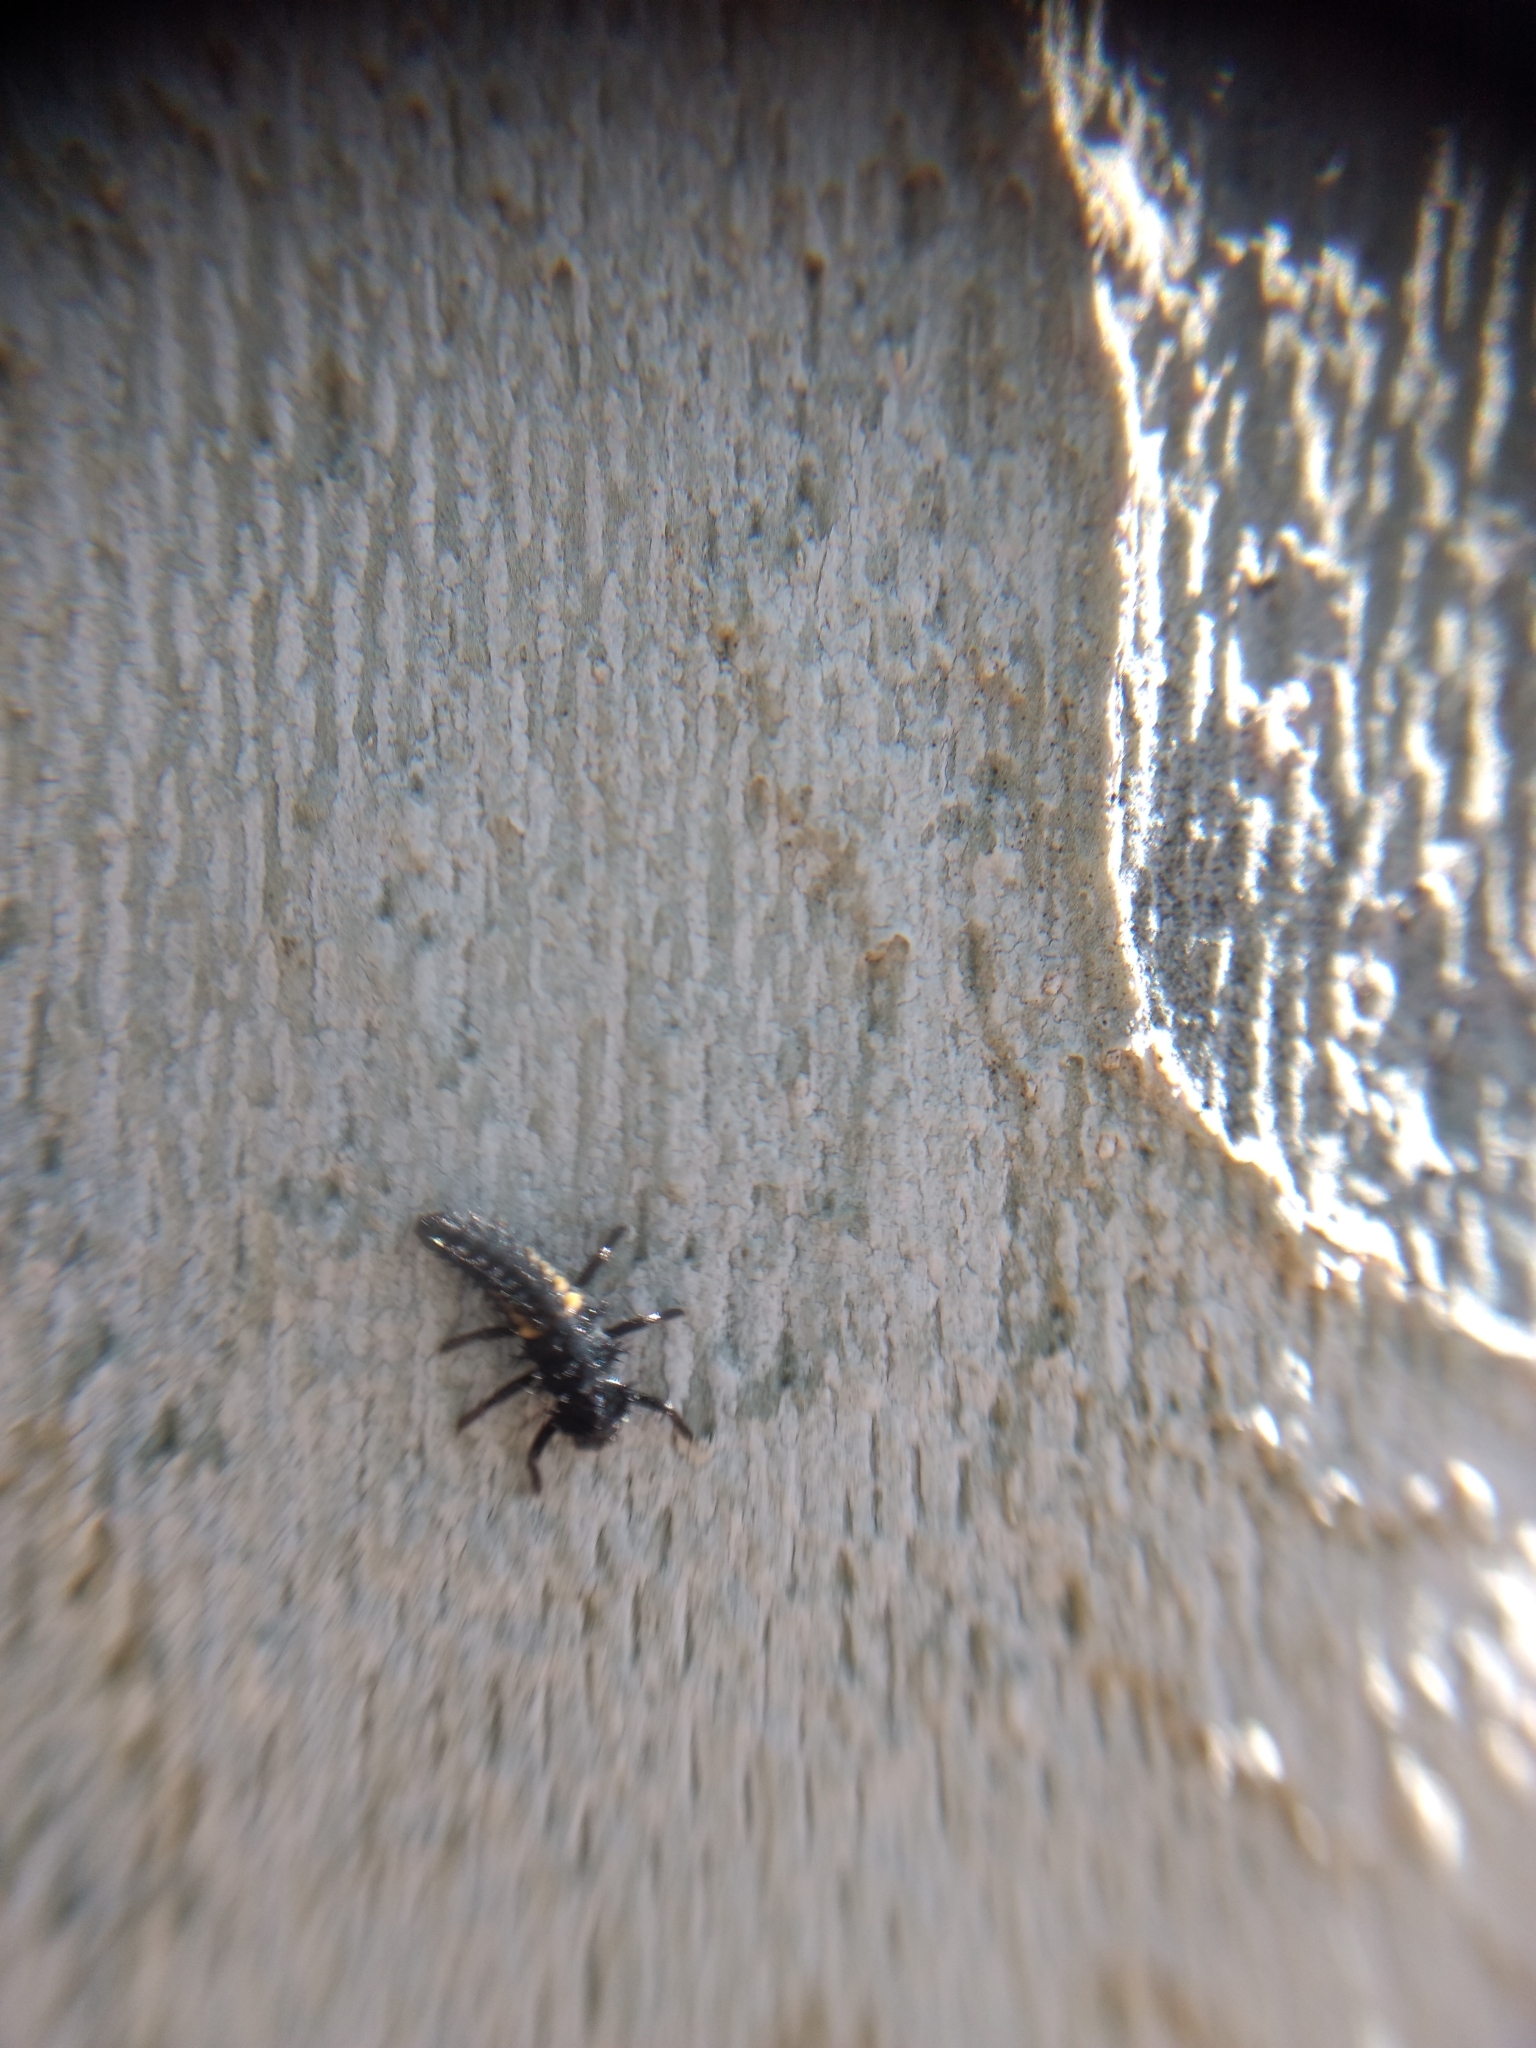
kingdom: Animalia
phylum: Arthropoda
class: Insecta
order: Coleoptera
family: Coccinellidae
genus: Harmonia
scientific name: Harmonia axyridis
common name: Harlequin ladybird
